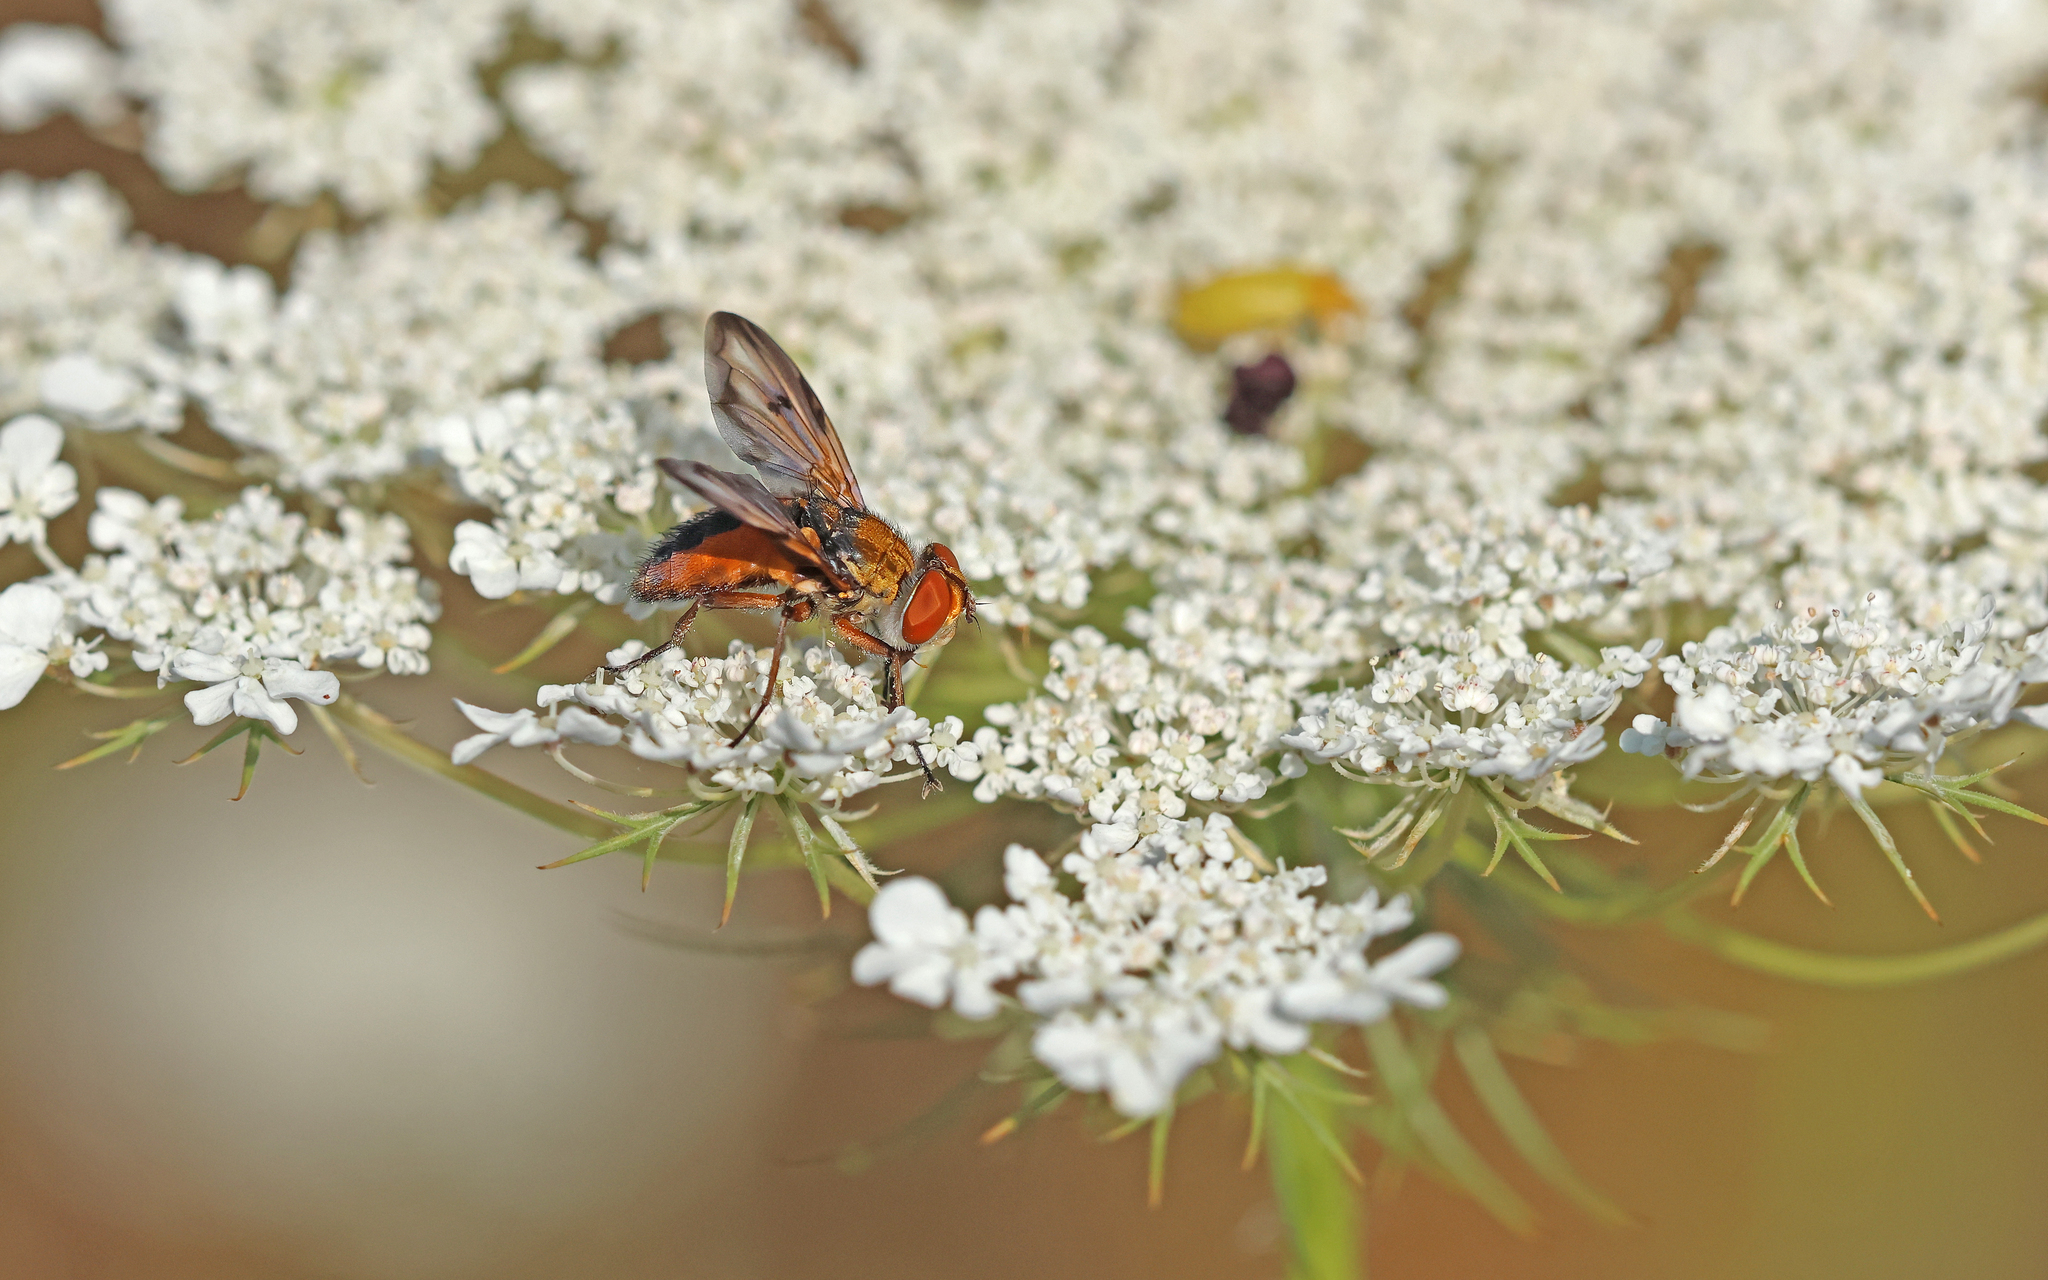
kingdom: Animalia
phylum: Arthropoda
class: Insecta
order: Diptera
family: Tachinidae
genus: Ectophasia
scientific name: Ectophasia crassipennis
